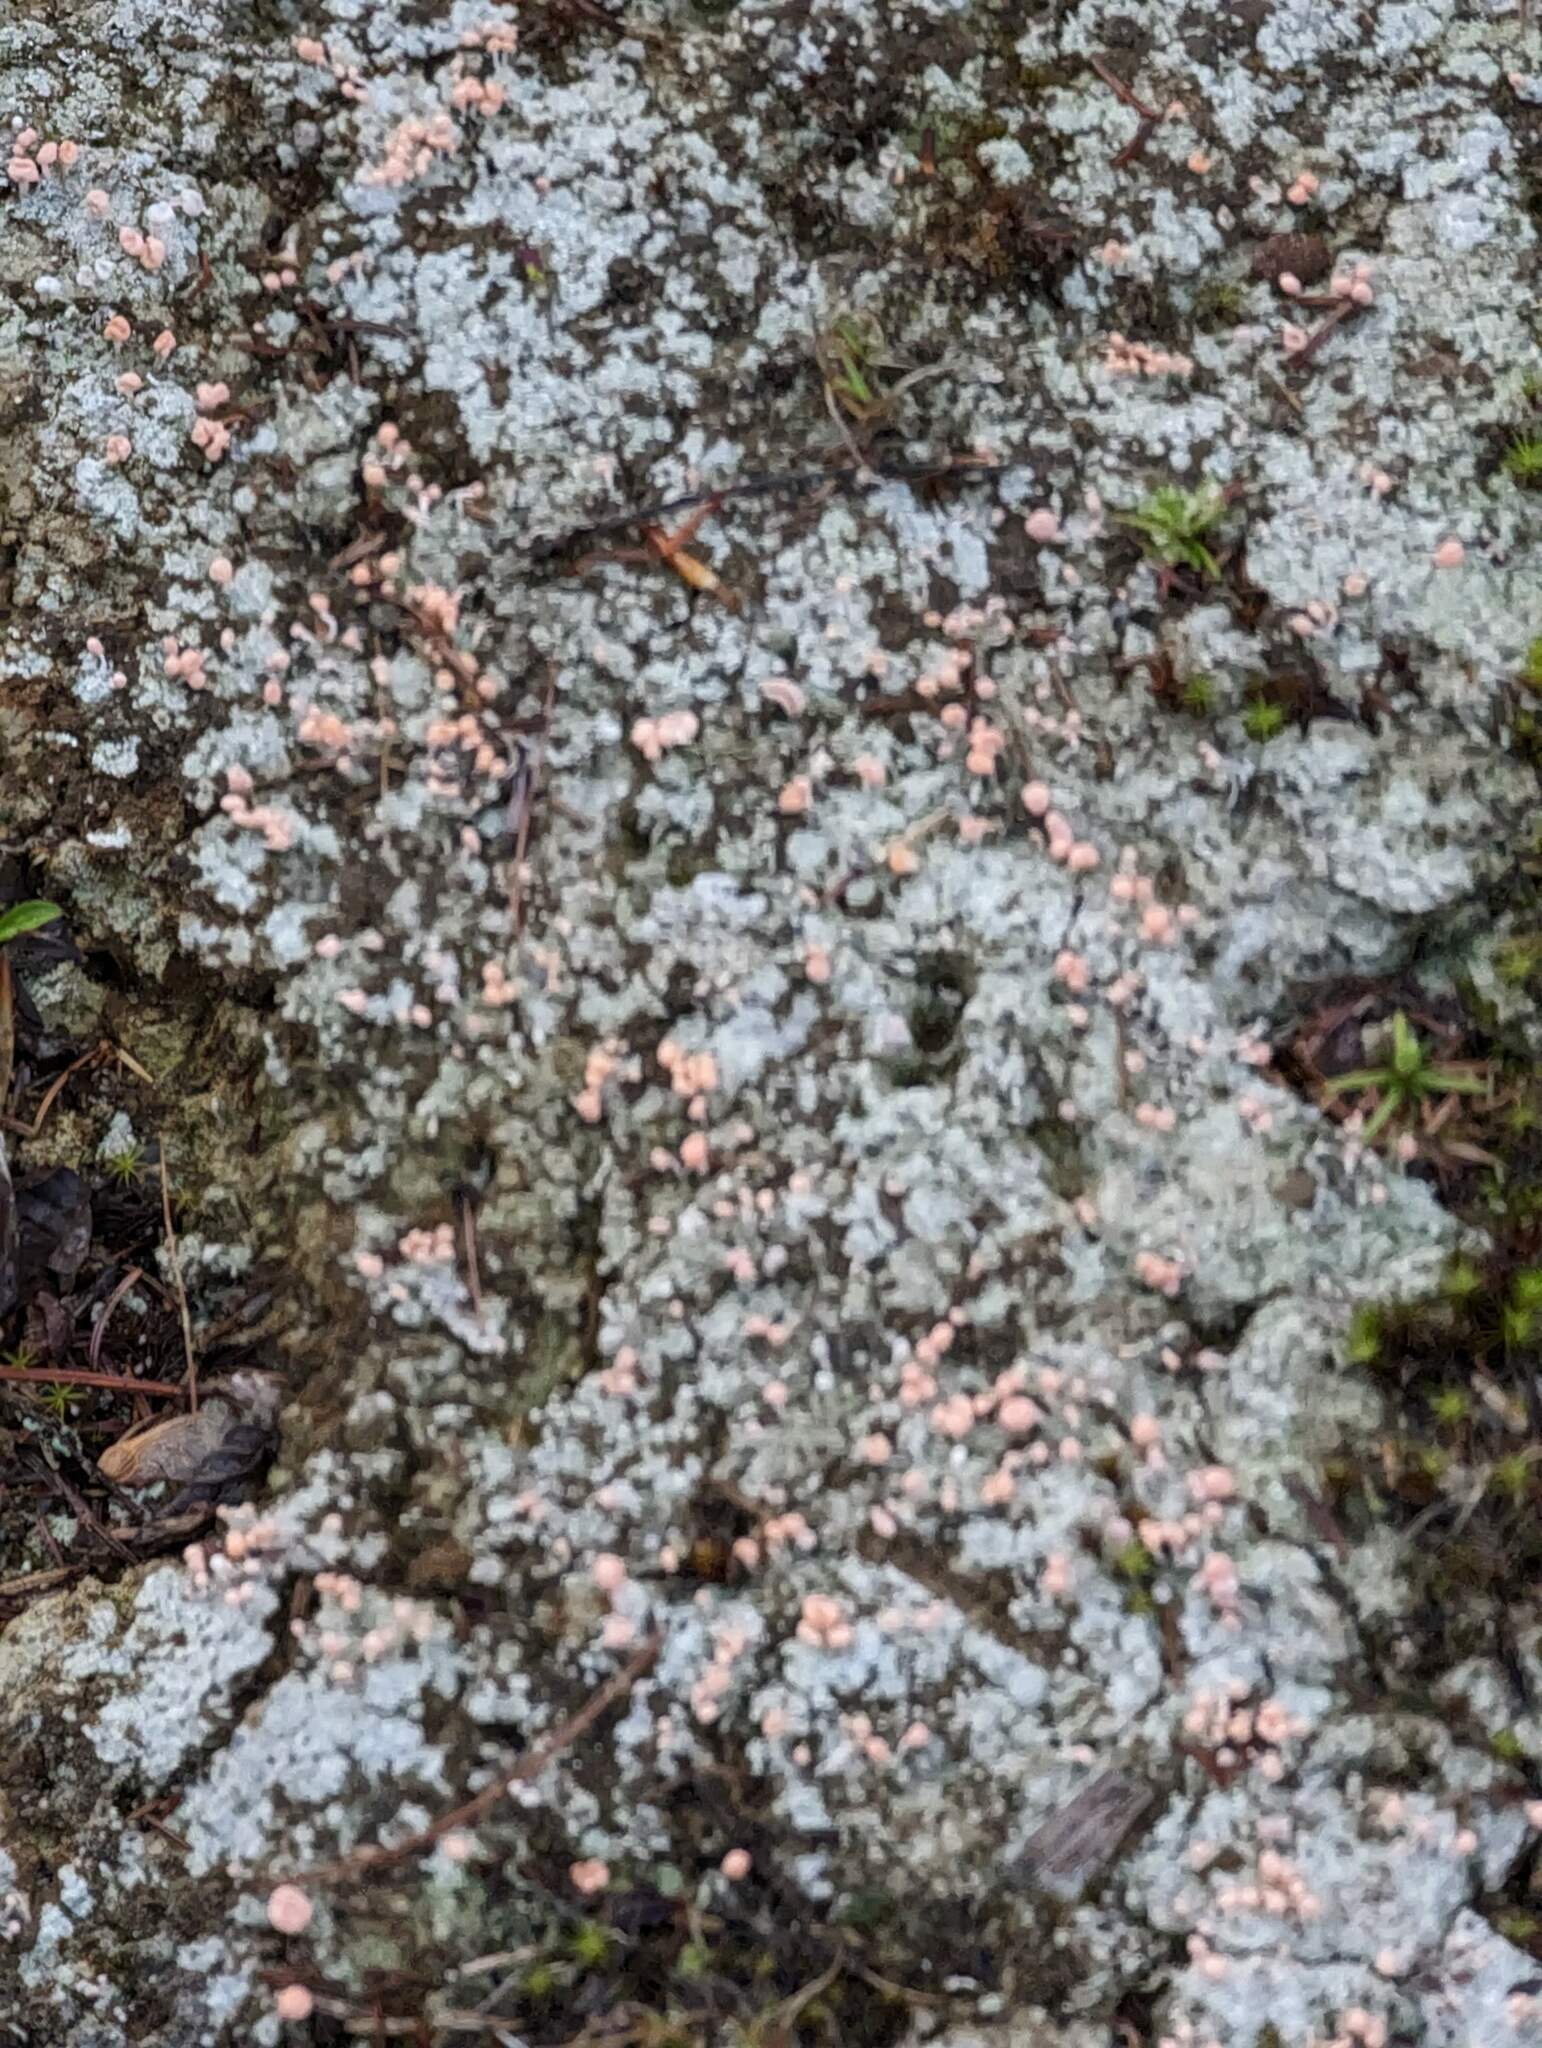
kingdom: Fungi
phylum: Ascomycota
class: Lecanoromycetes
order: Pertusariales
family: Icmadophilaceae
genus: Dibaeis
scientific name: Dibaeis baeomyces
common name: Pink earth lichen
